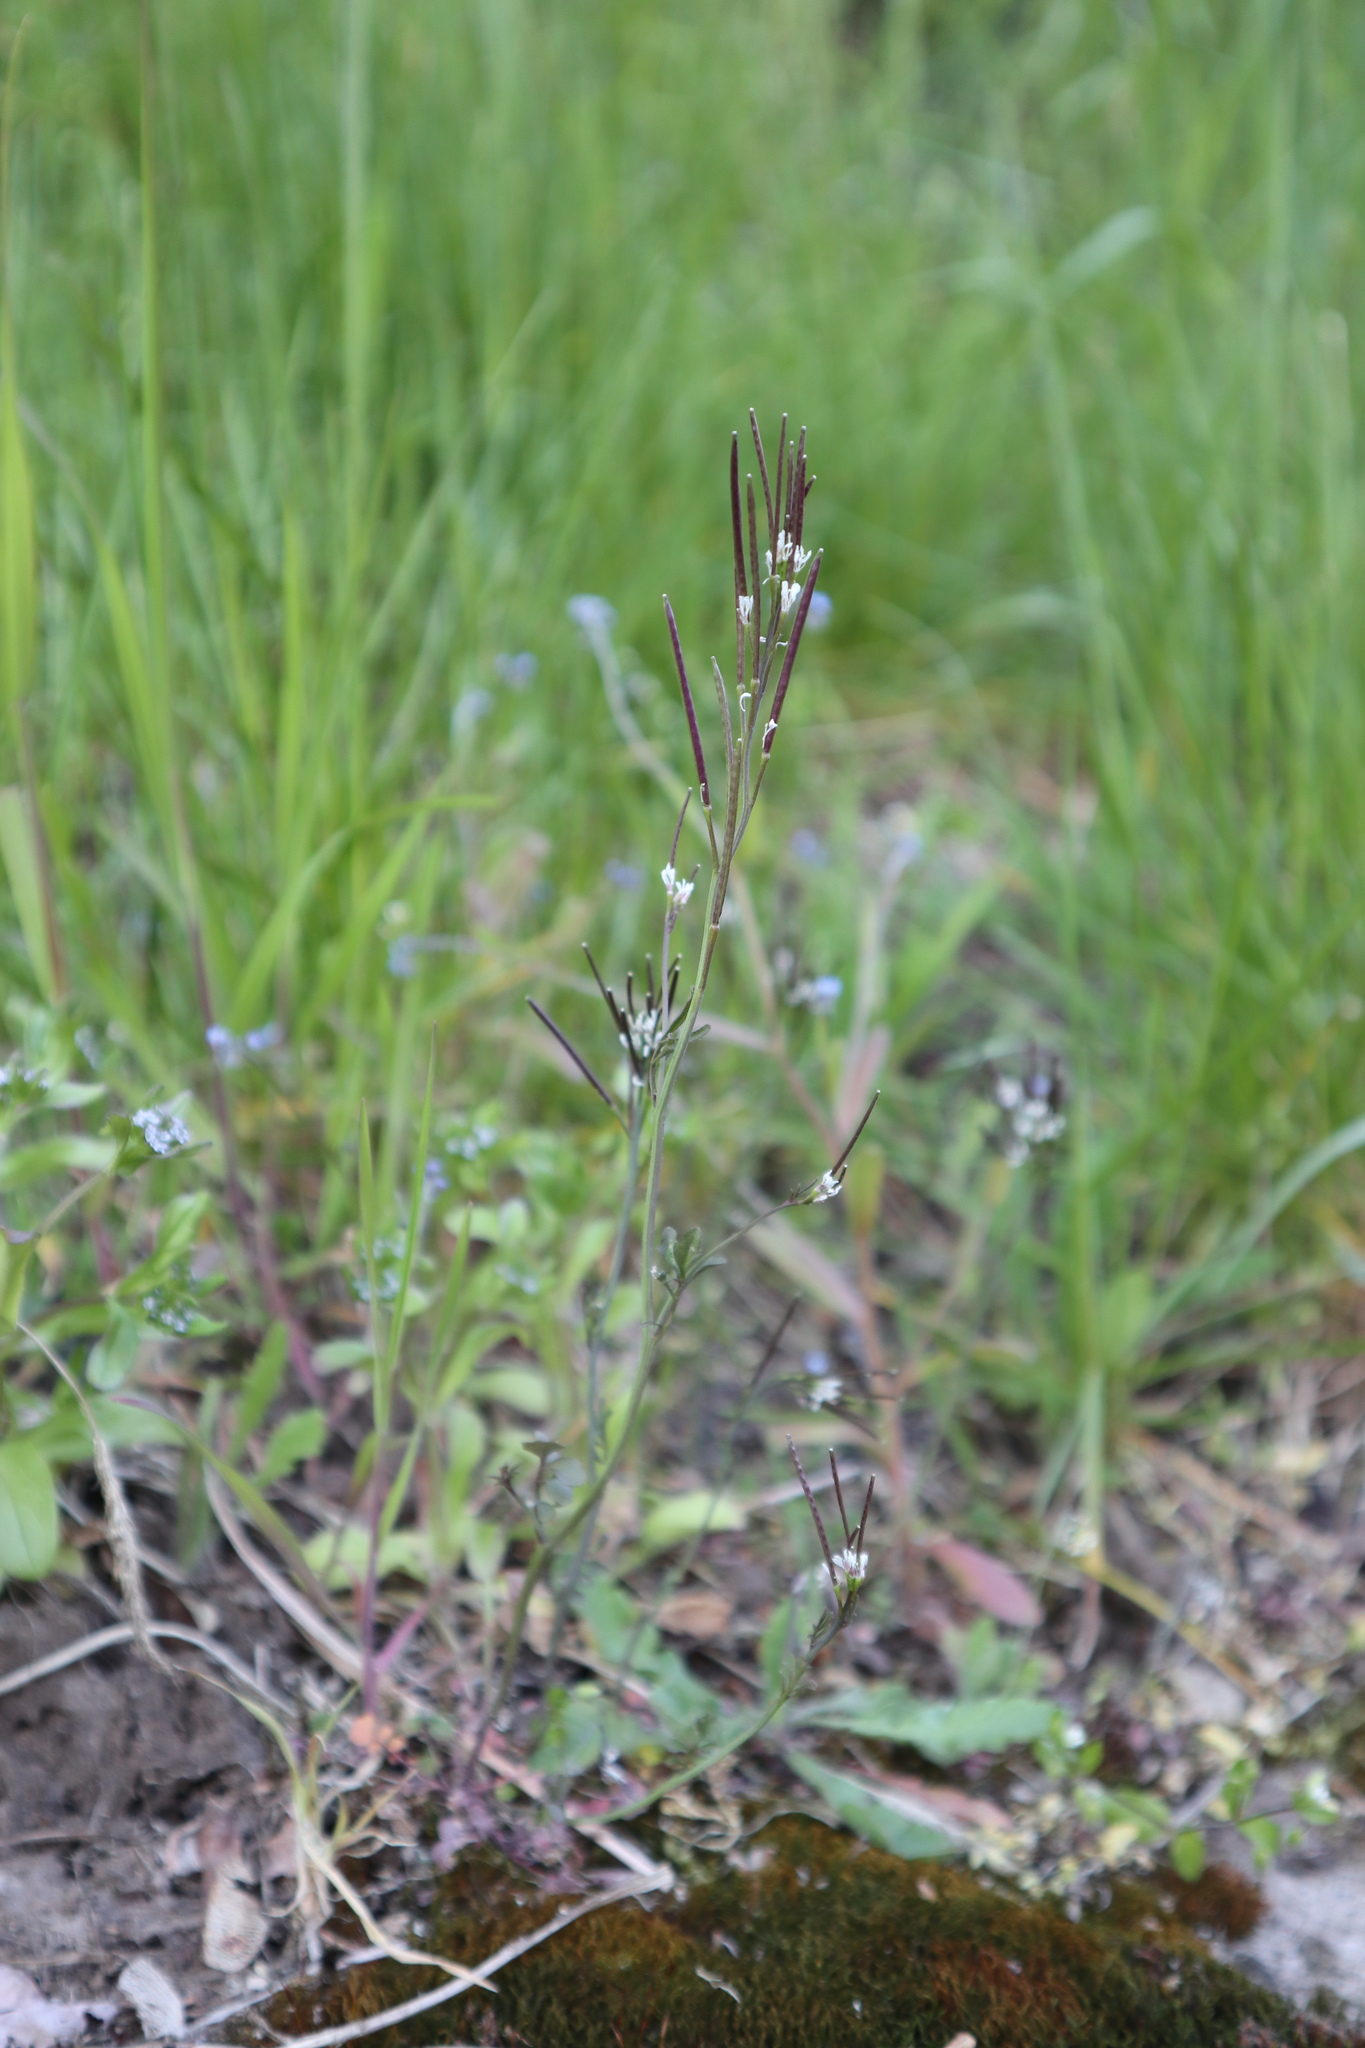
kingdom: Plantae
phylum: Tracheophyta
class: Magnoliopsida
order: Brassicales
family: Brassicaceae
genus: Cardamine
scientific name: Cardamine hirsuta
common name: Hairy bittercress
